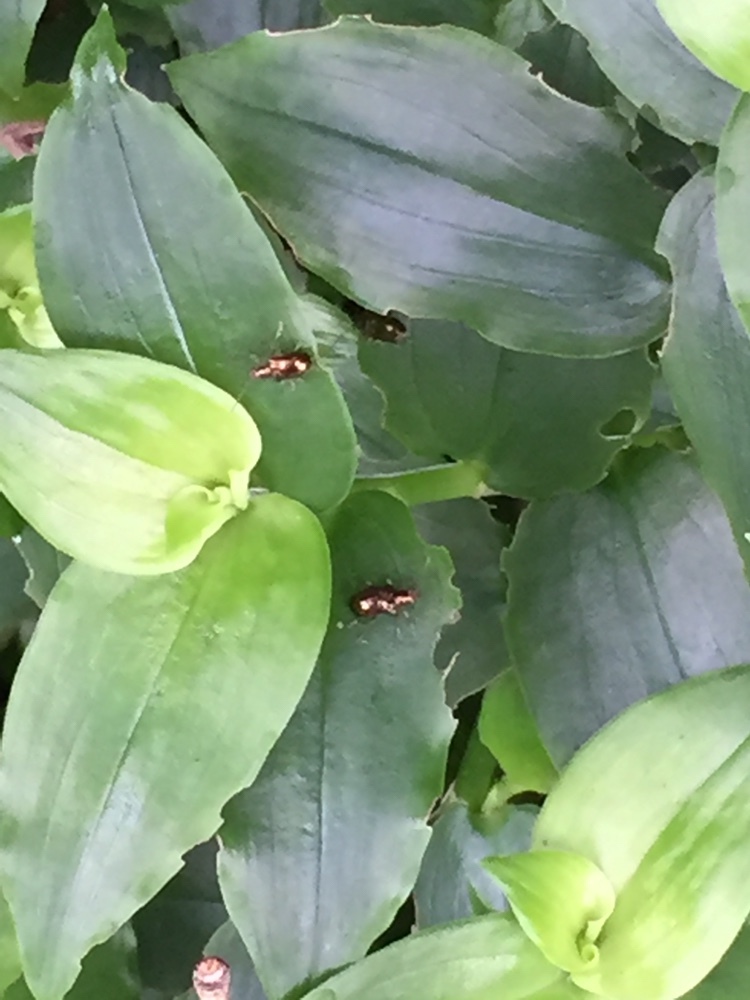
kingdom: Animalia
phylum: Arthropoda
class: Insecta
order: Coleoptera
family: Chrysomelidae
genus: Neolema
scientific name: Neolema ogloblini
